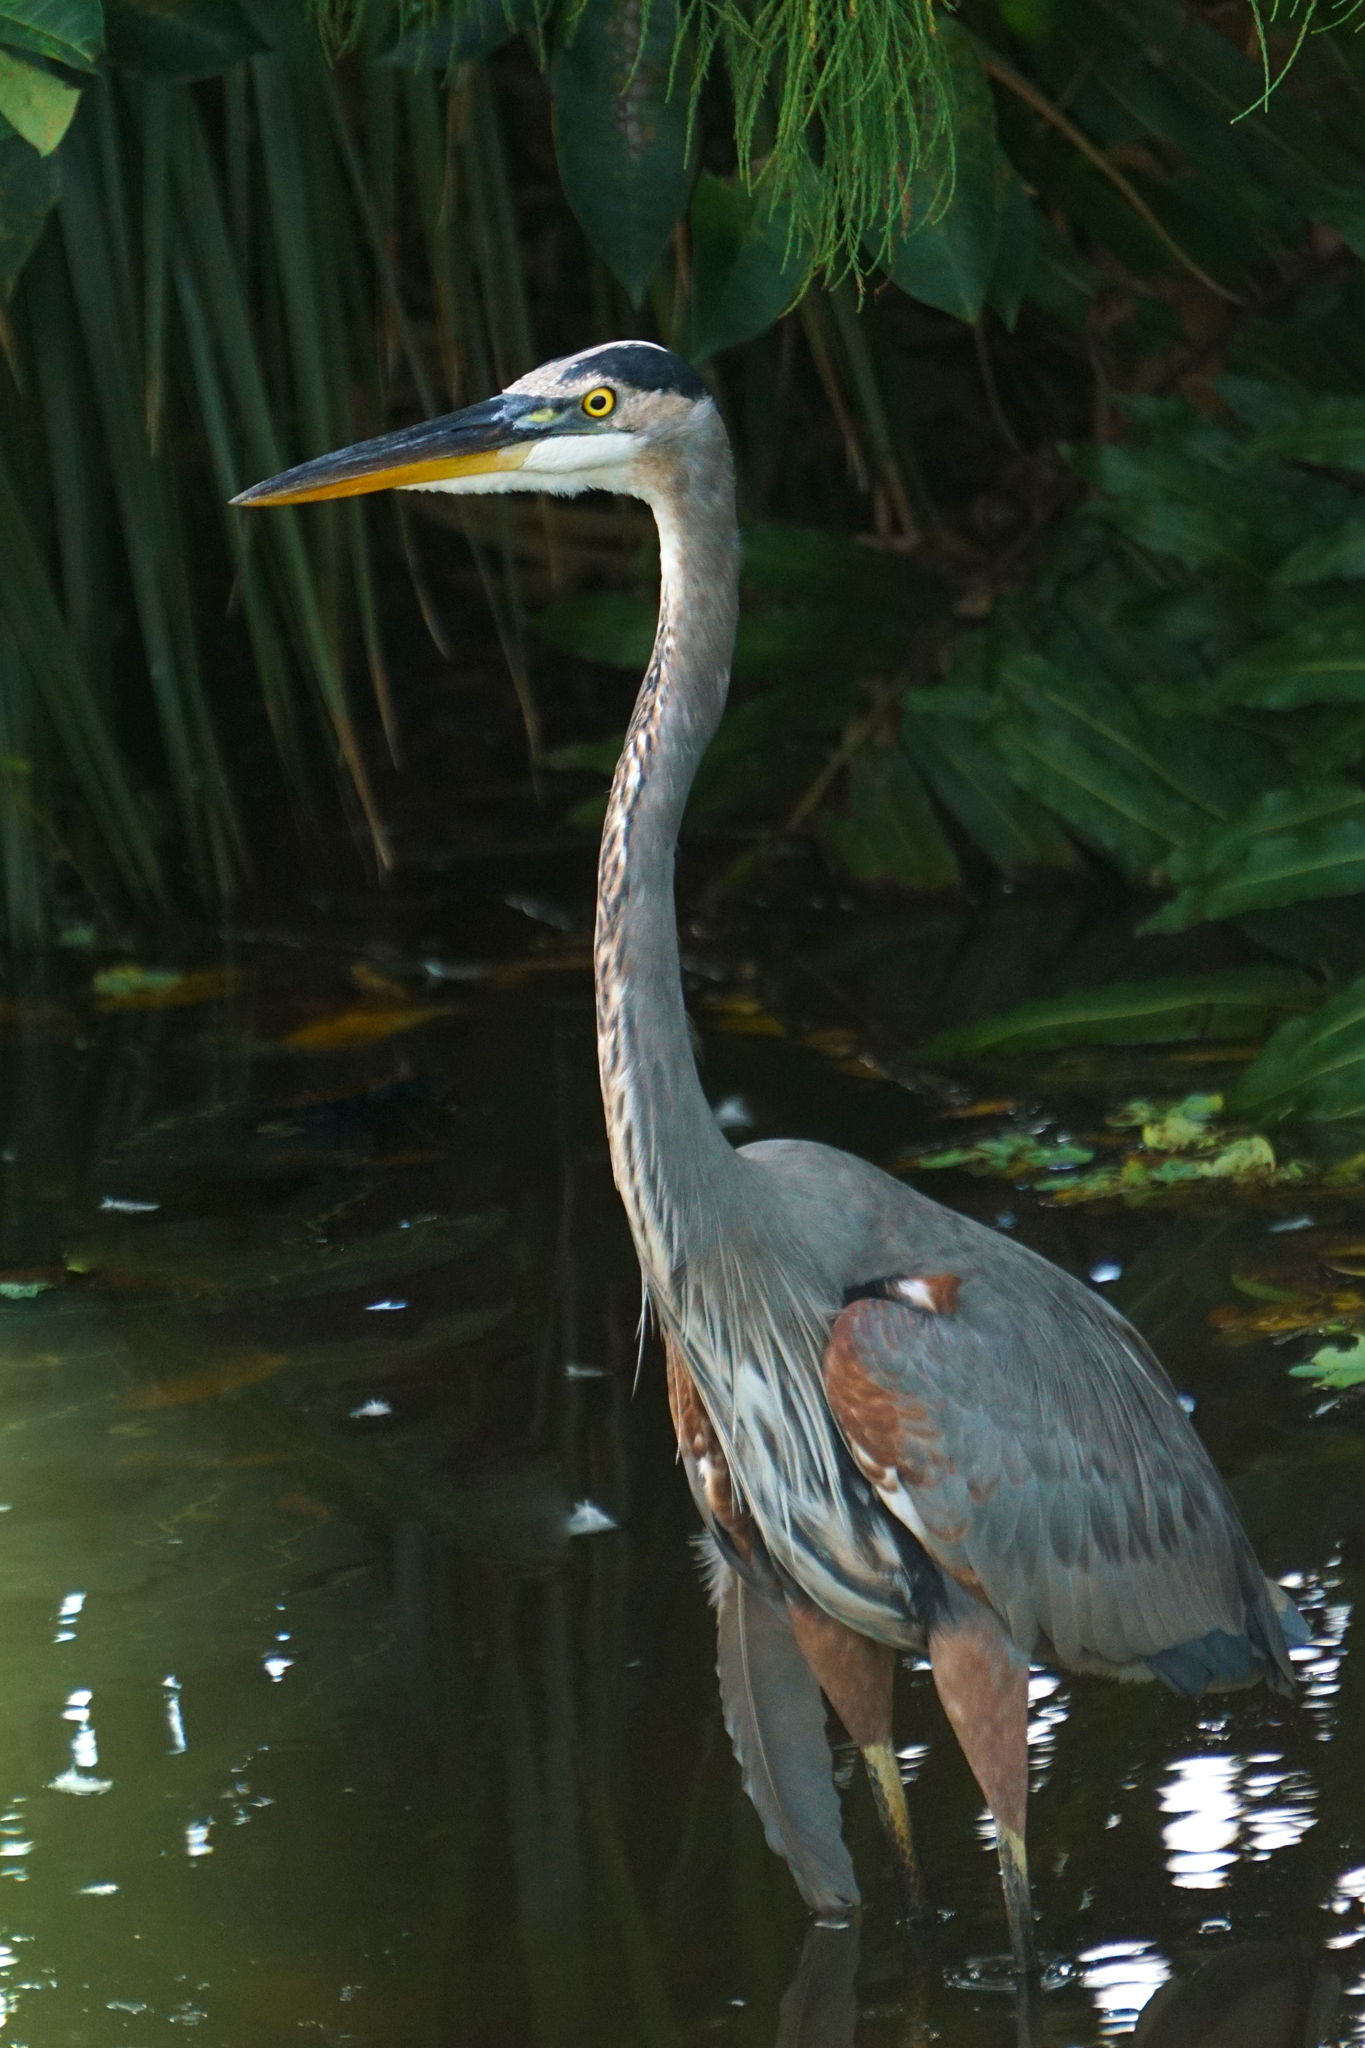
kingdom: Animalia
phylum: Chordata
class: Aves
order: Pelecaniformes
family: Ardeidae
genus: Ardea
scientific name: Ardea herodias
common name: Great blue heron
